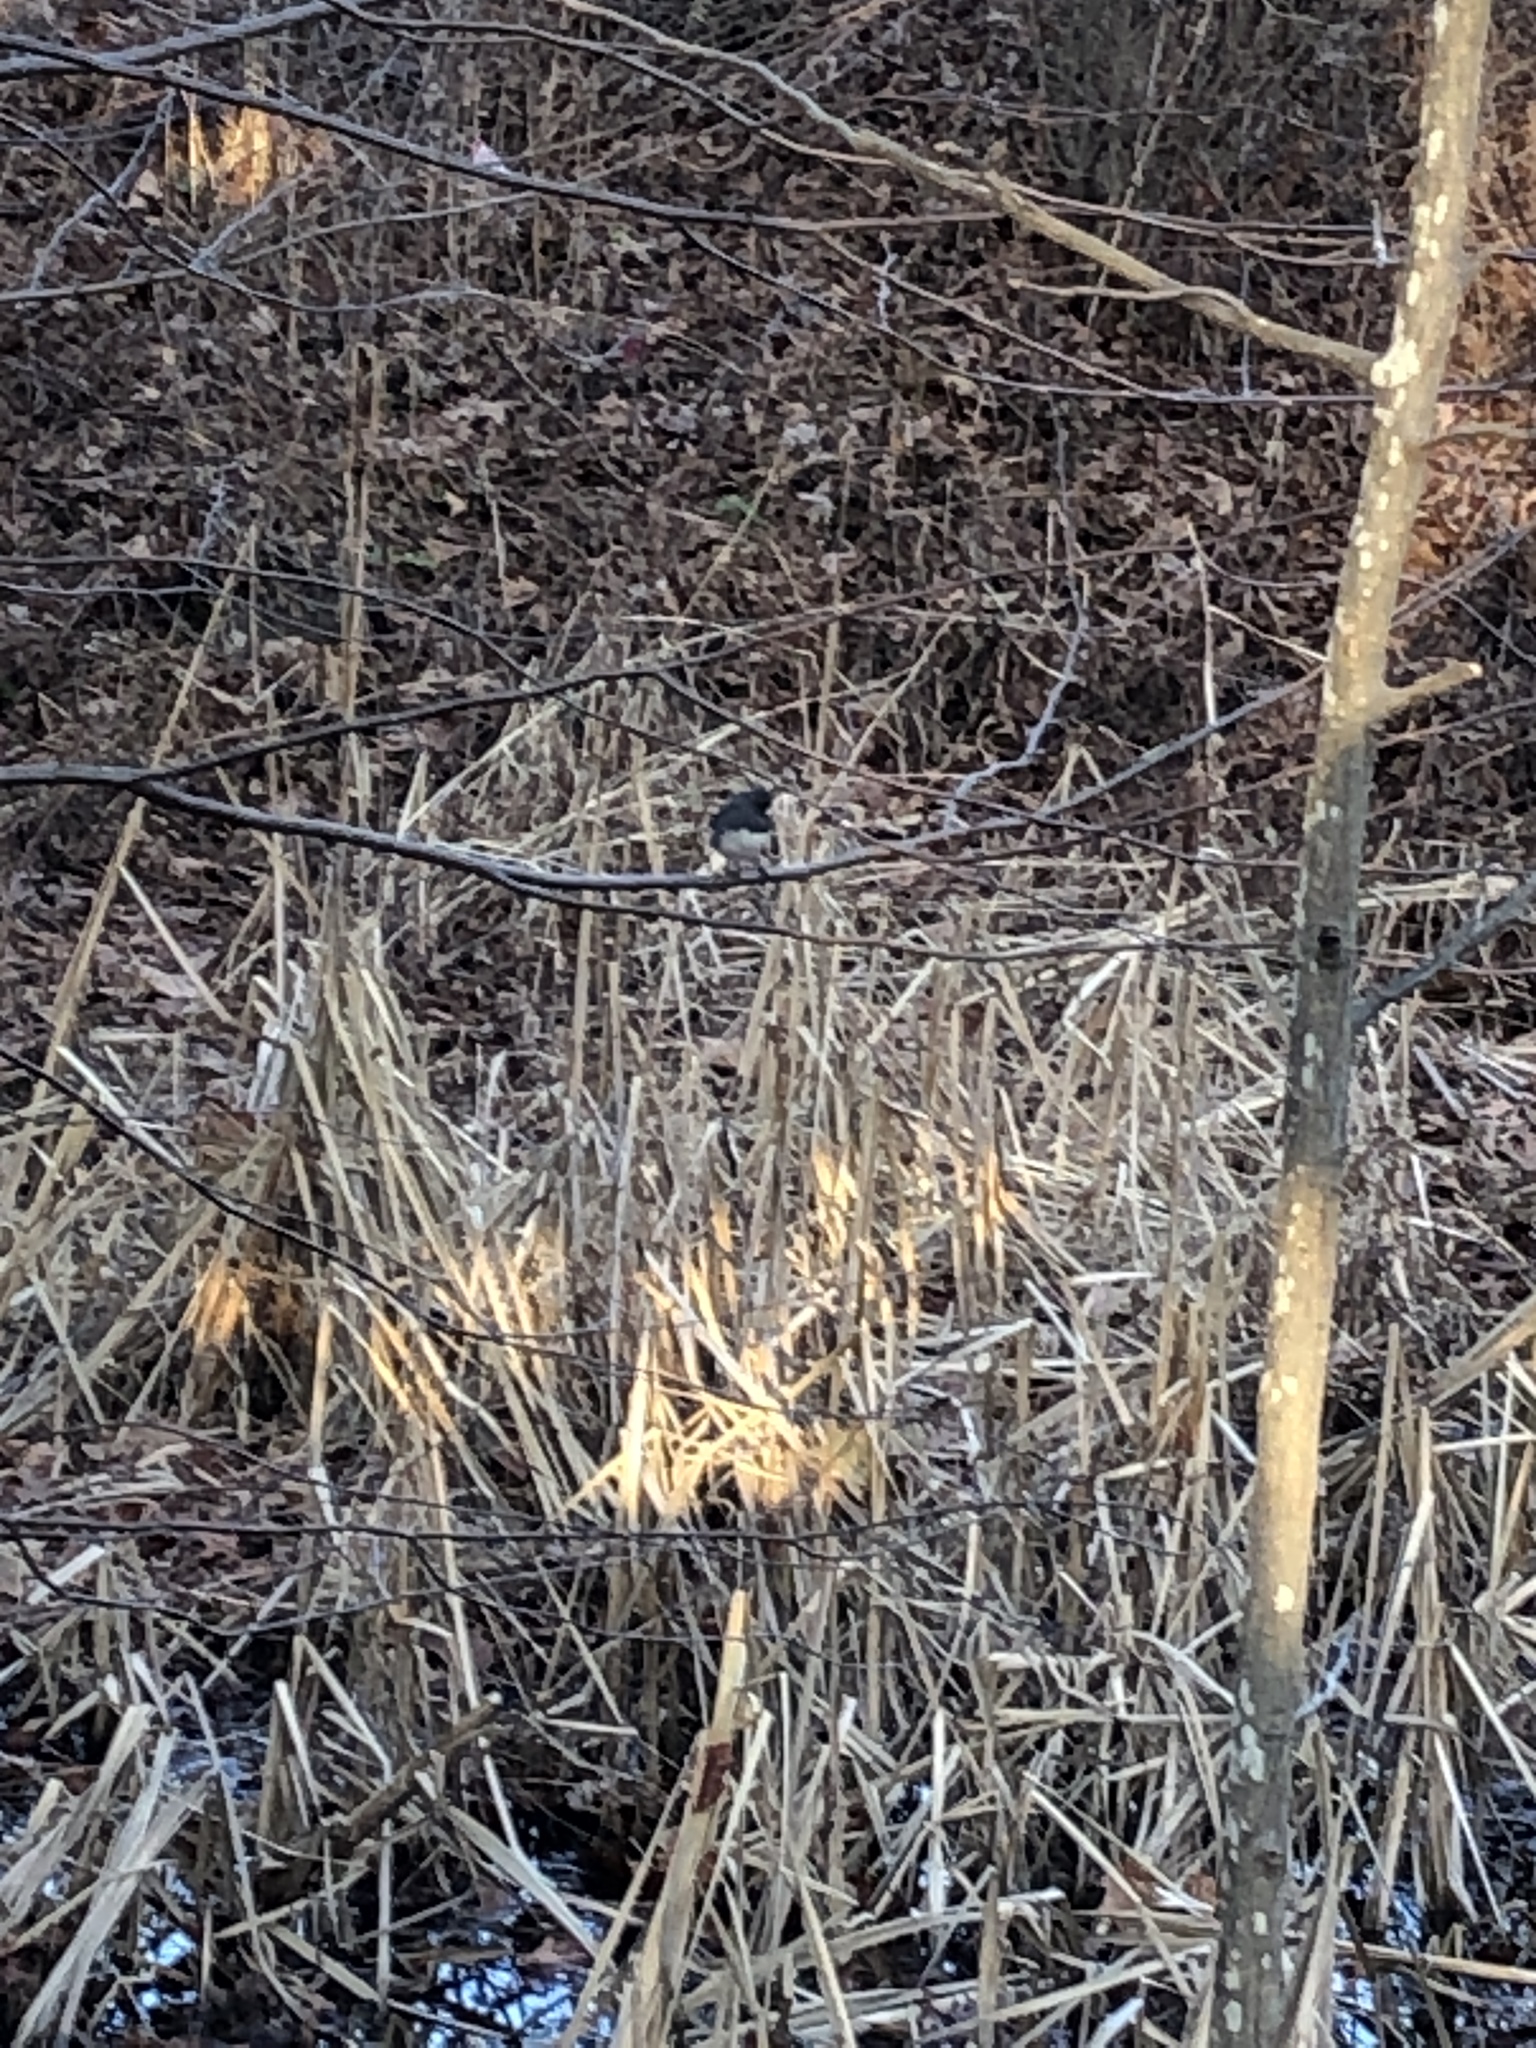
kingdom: Animalia
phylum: Chordata
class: Aves
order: Passeriformes
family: Passerellidae
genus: Junco
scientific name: Junco hyemalis
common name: Dark-eyed junco
